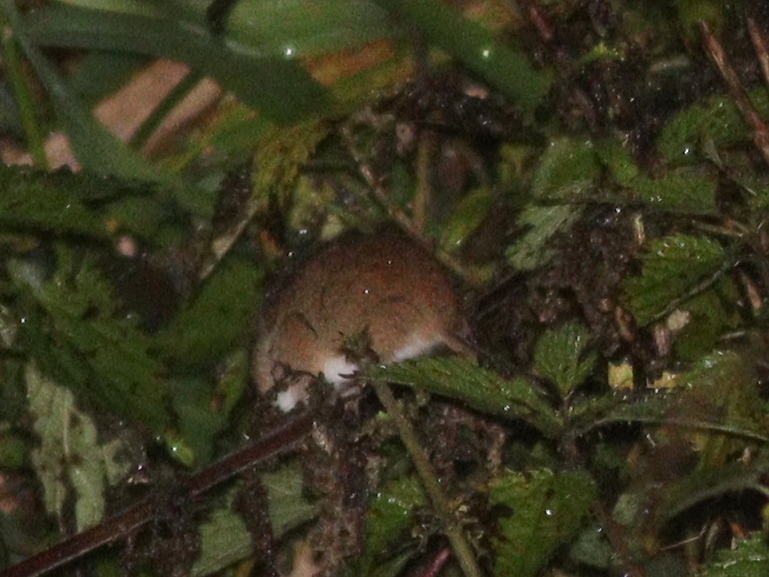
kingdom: Animalia
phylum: Chordata
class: Mammalia
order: Rodentia
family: Muridae
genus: Micromys
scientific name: Micromys minutus
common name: Harvest mouse
